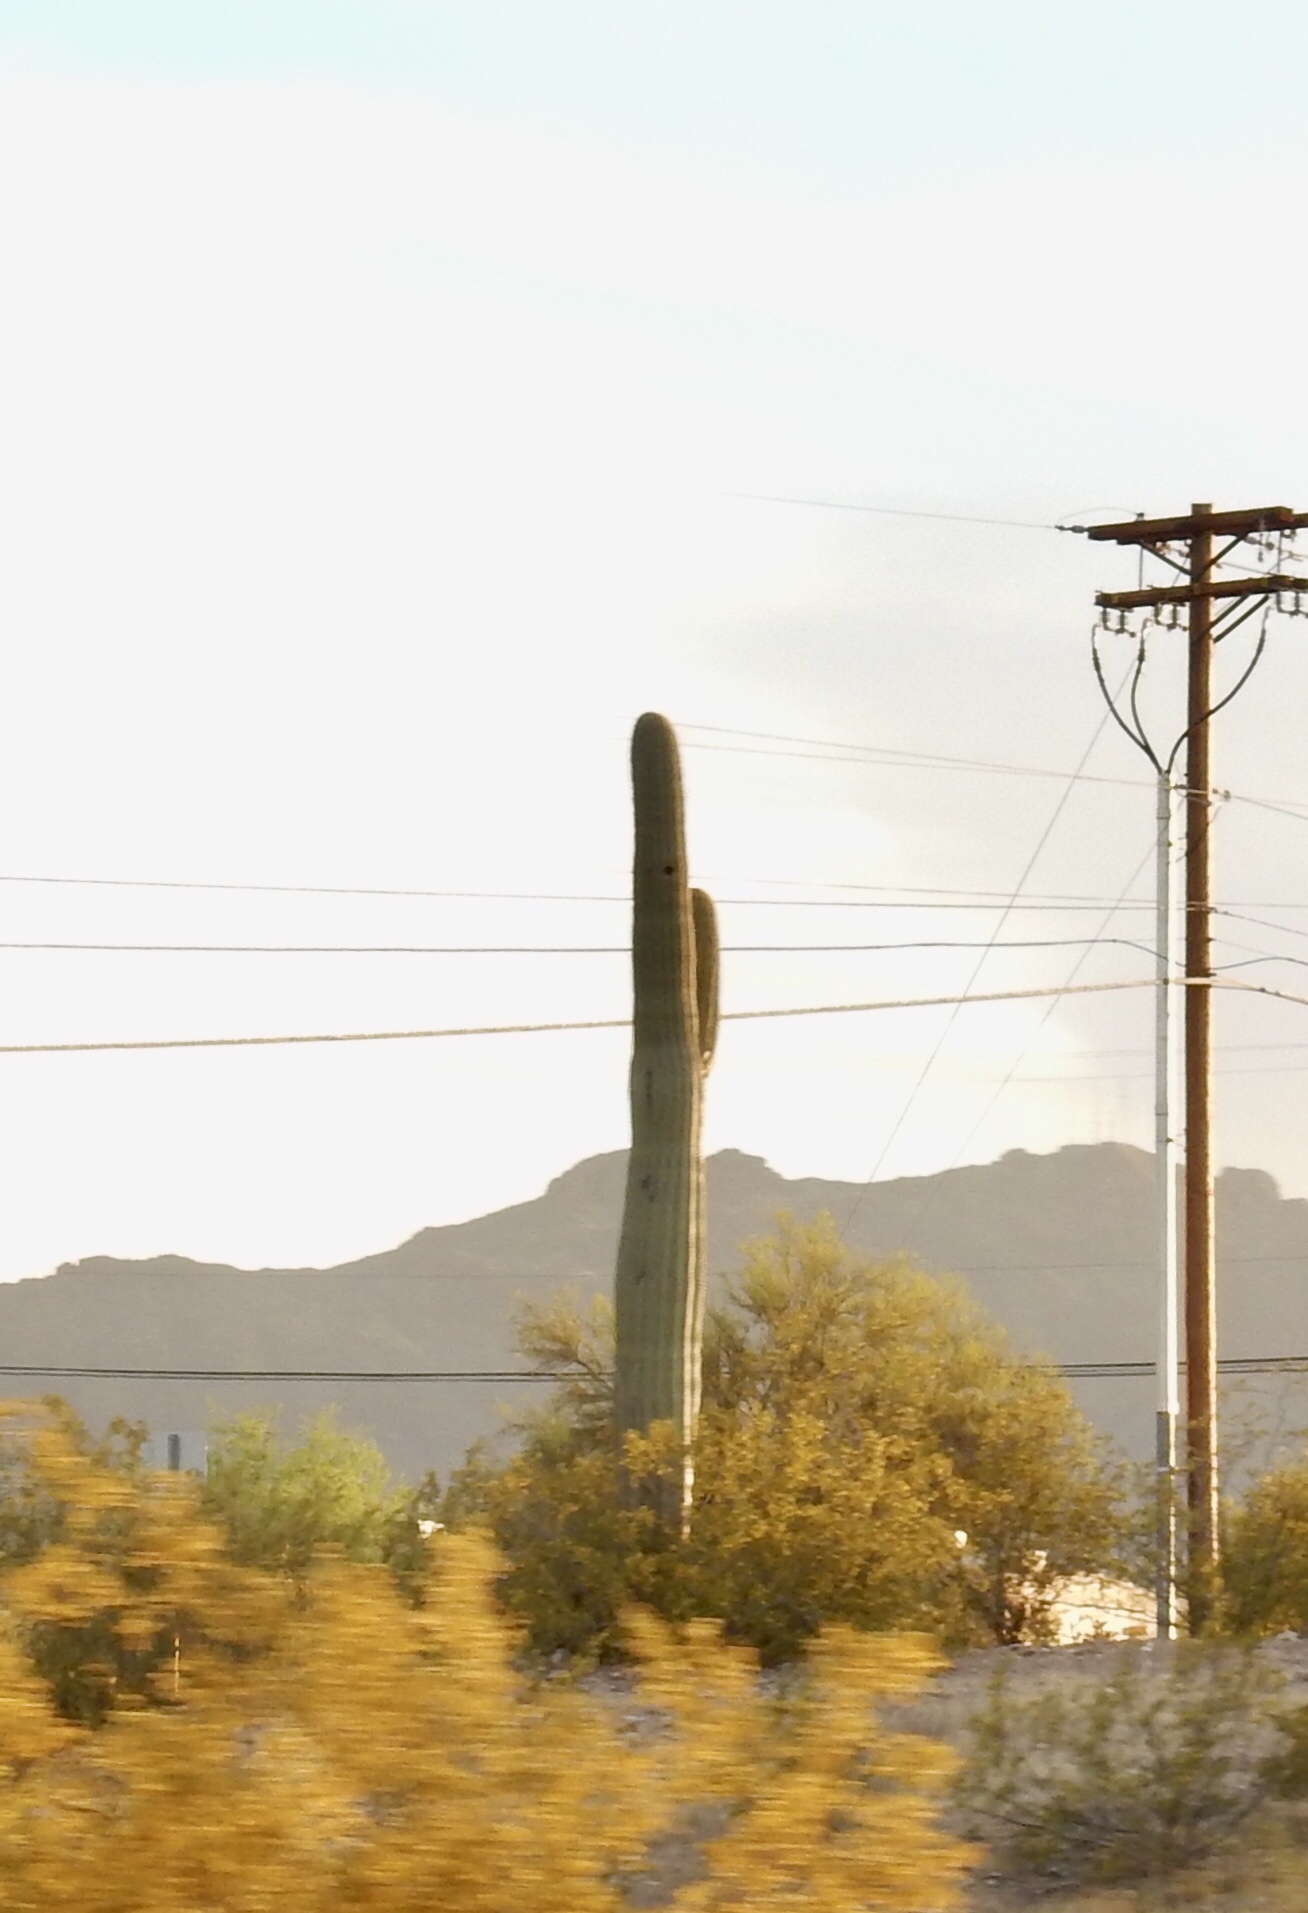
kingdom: Plantae
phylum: Tracheophyta
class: Magnoliopsida
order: Caryophyllales
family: Cactaceae
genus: Carnegiea
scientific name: Carnegiea gigantea
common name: Saguaro
